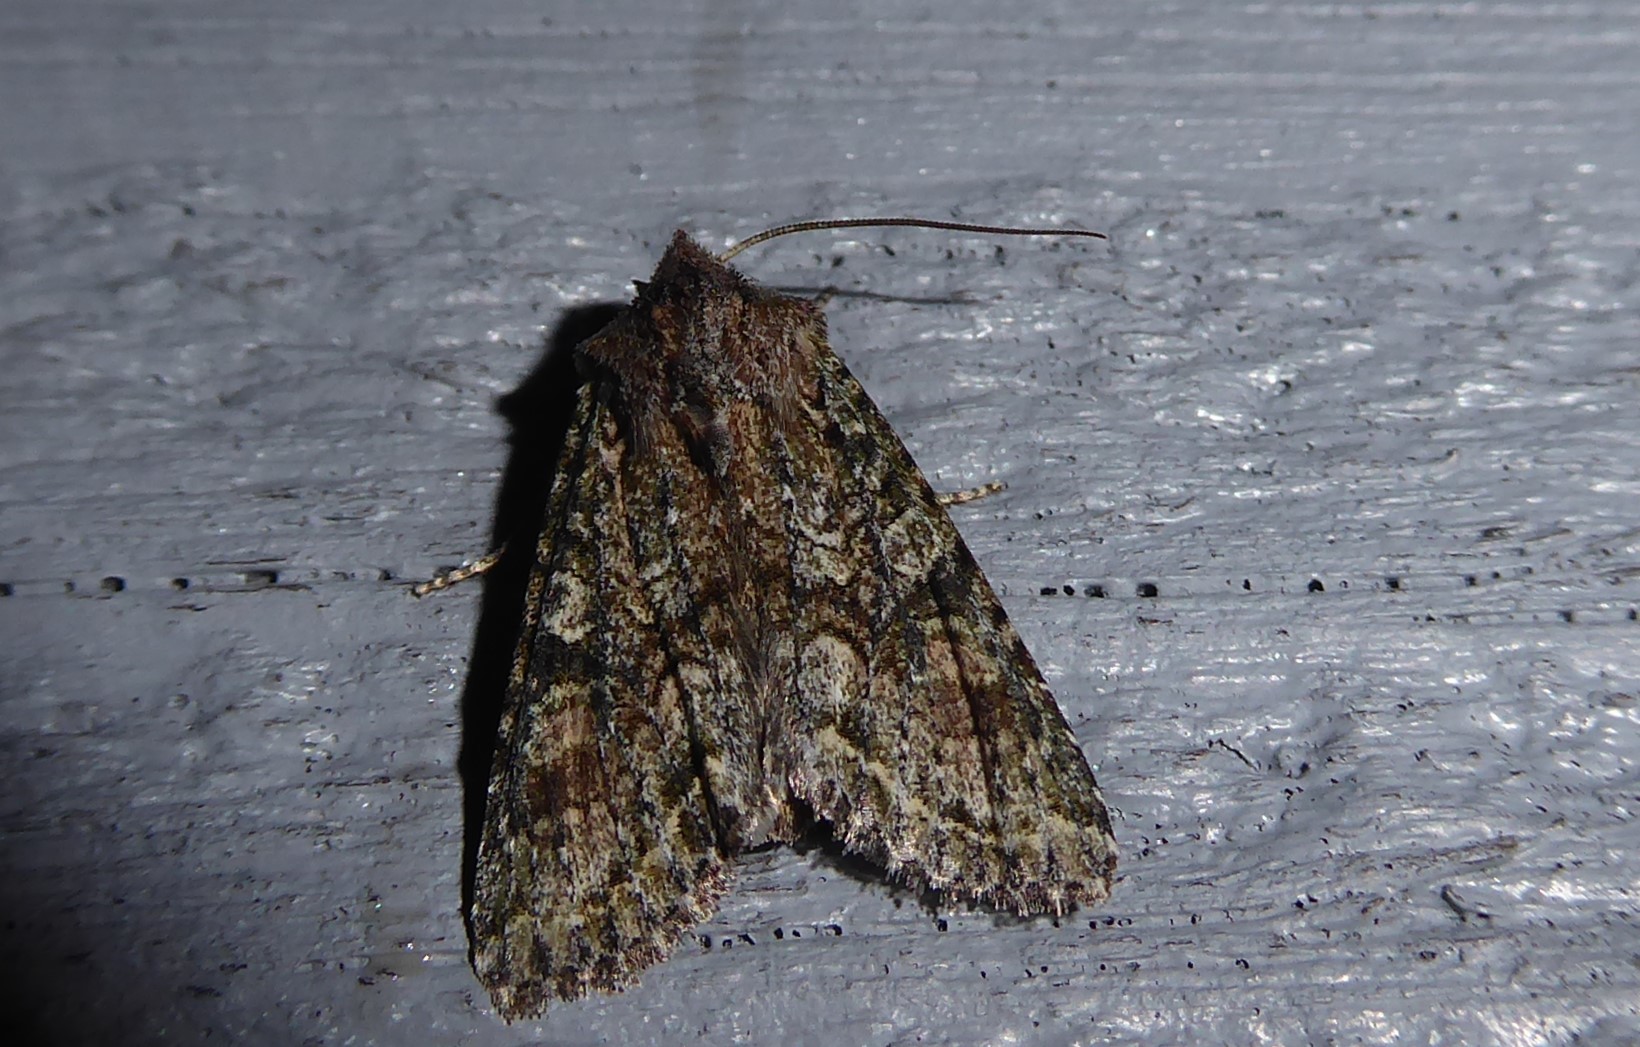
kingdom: Animalia
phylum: Arthropoda
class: Insecta
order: Lepidoptera
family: Noctuidae
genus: Ichneutica
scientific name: Ichneutica mutans
